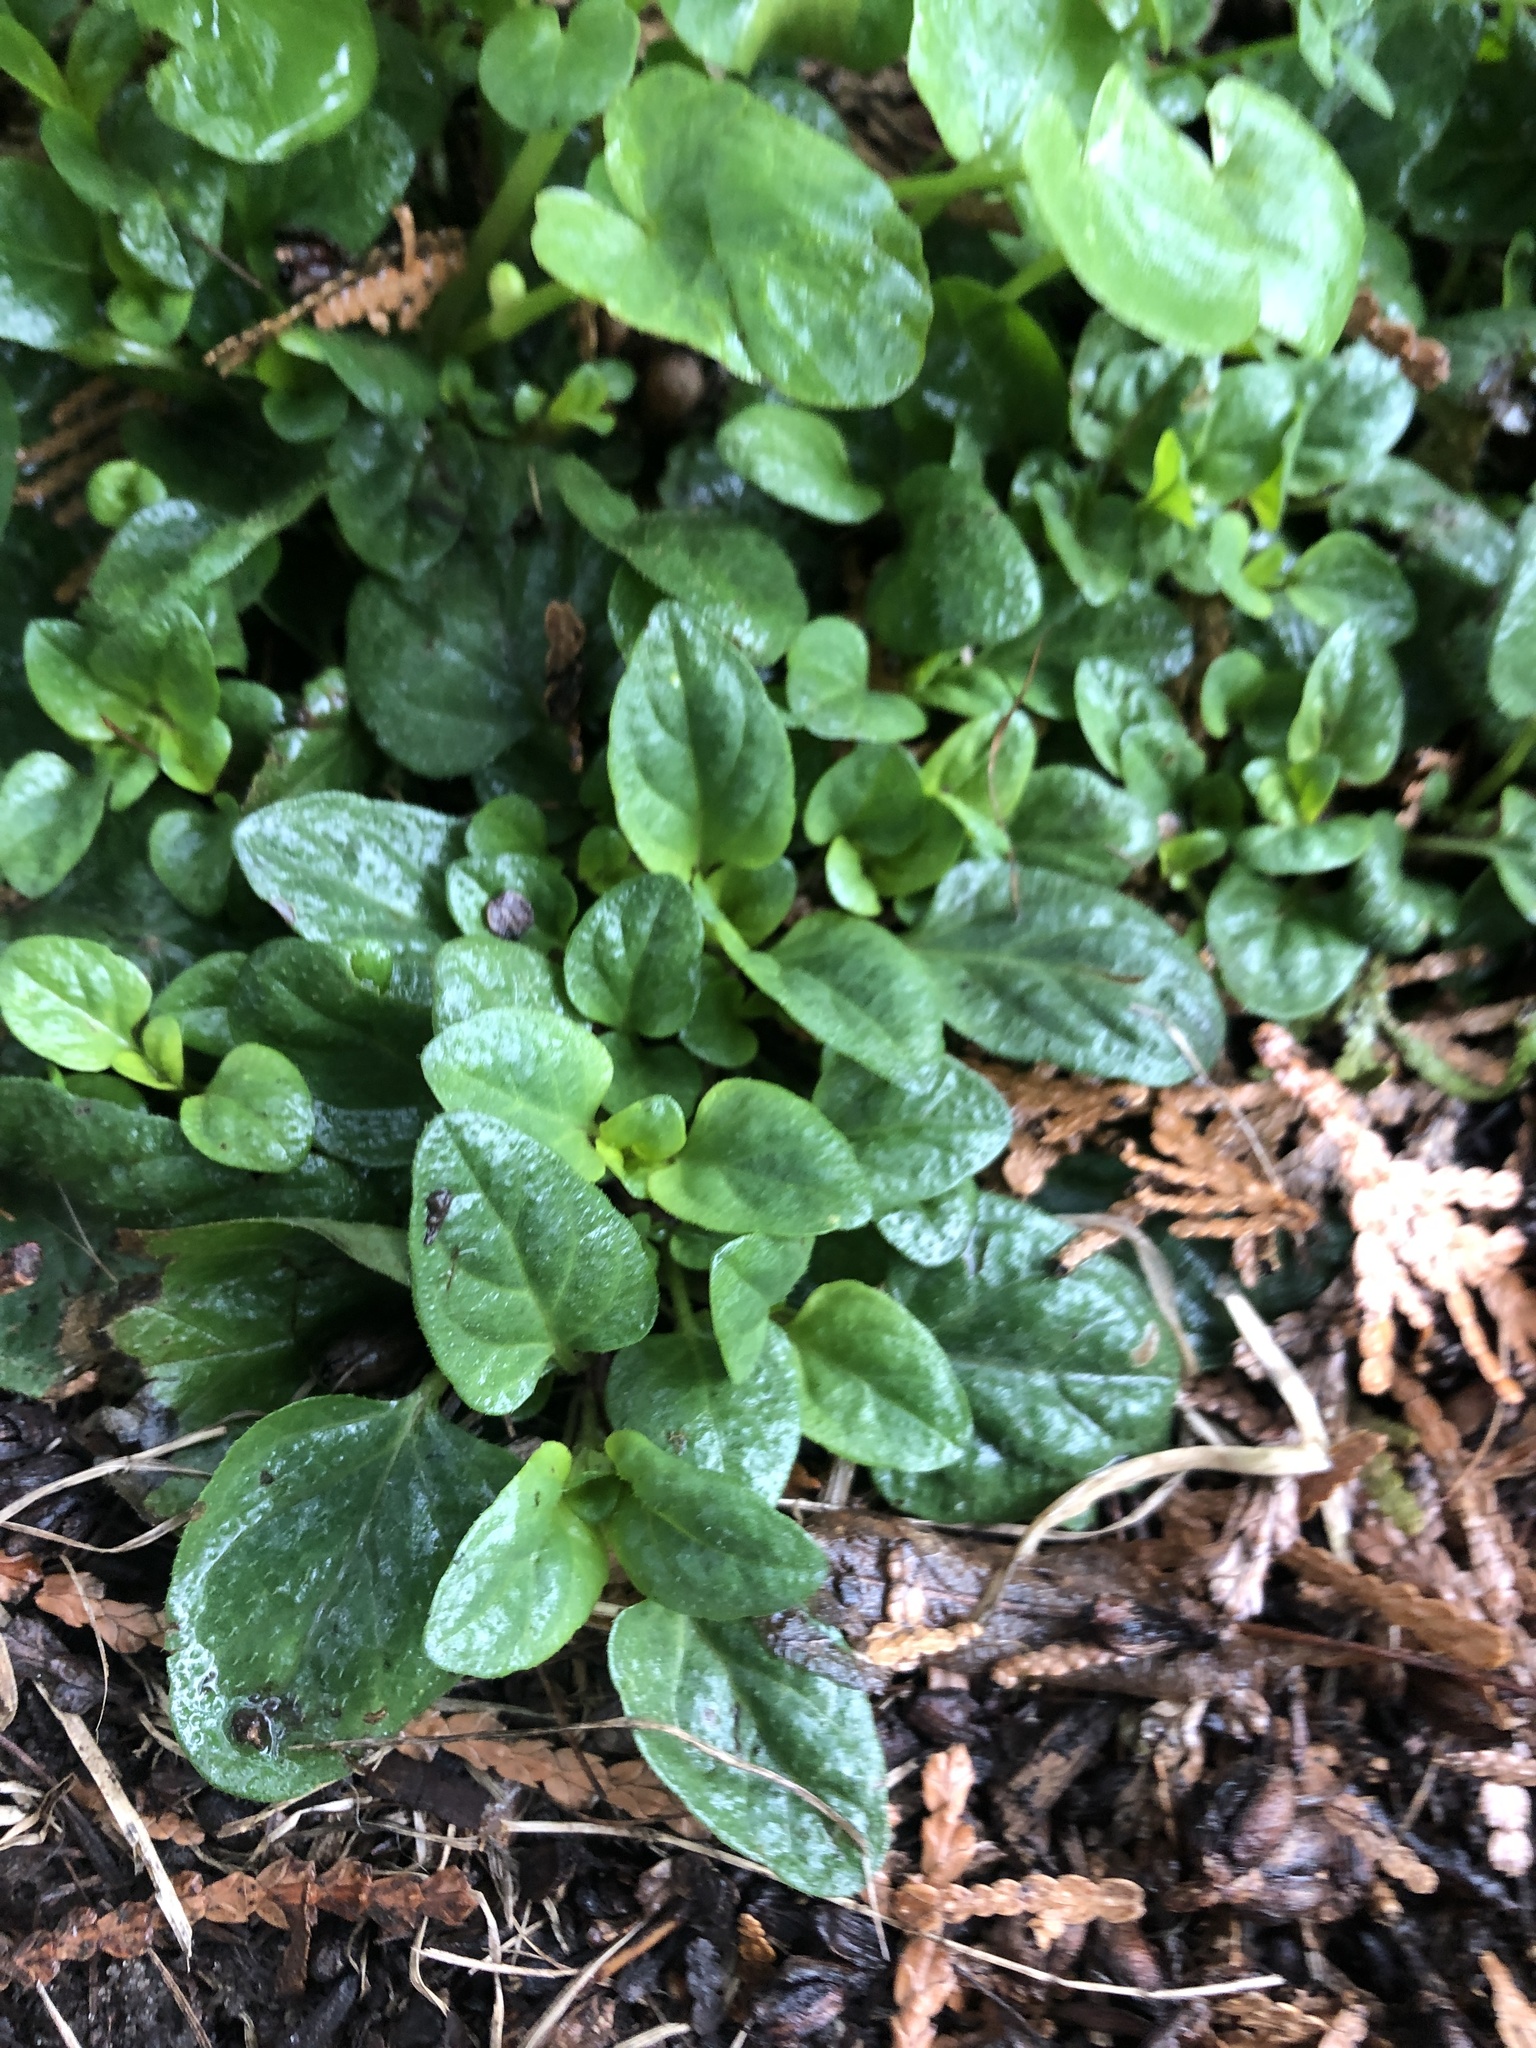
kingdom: Plantae
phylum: Tracheophyta
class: Magnoliopsida
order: Lamiales
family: Lamiaceae
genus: Prunella
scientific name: Prunella vulgaris
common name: Heal-all
